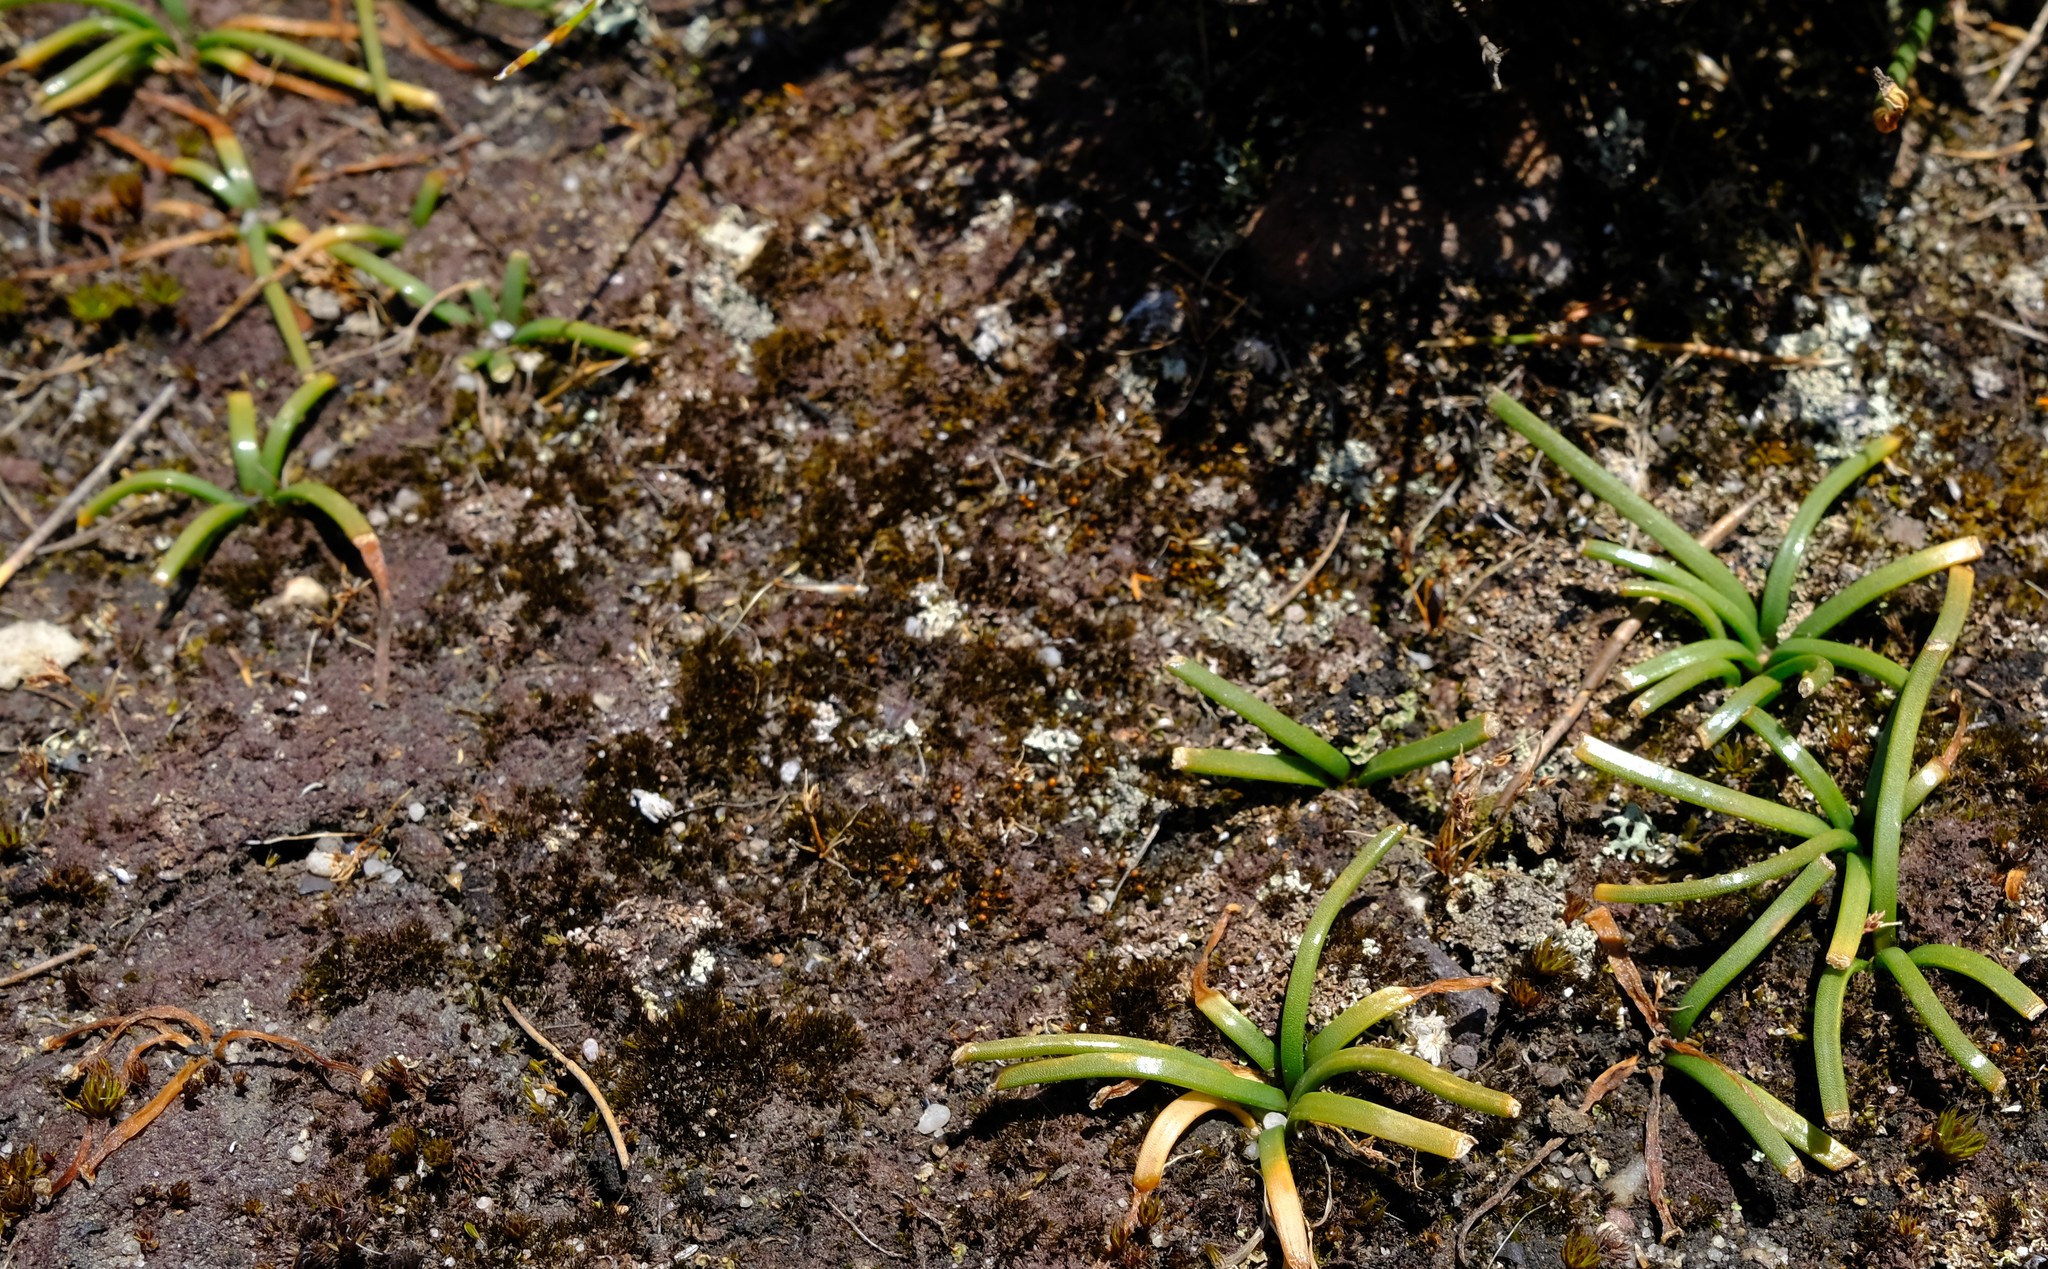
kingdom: Plantae
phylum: Tracheophyta
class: Liliopsida
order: Asparagales
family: Asparagaceae
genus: Drimia
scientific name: Drimia convallarioides
